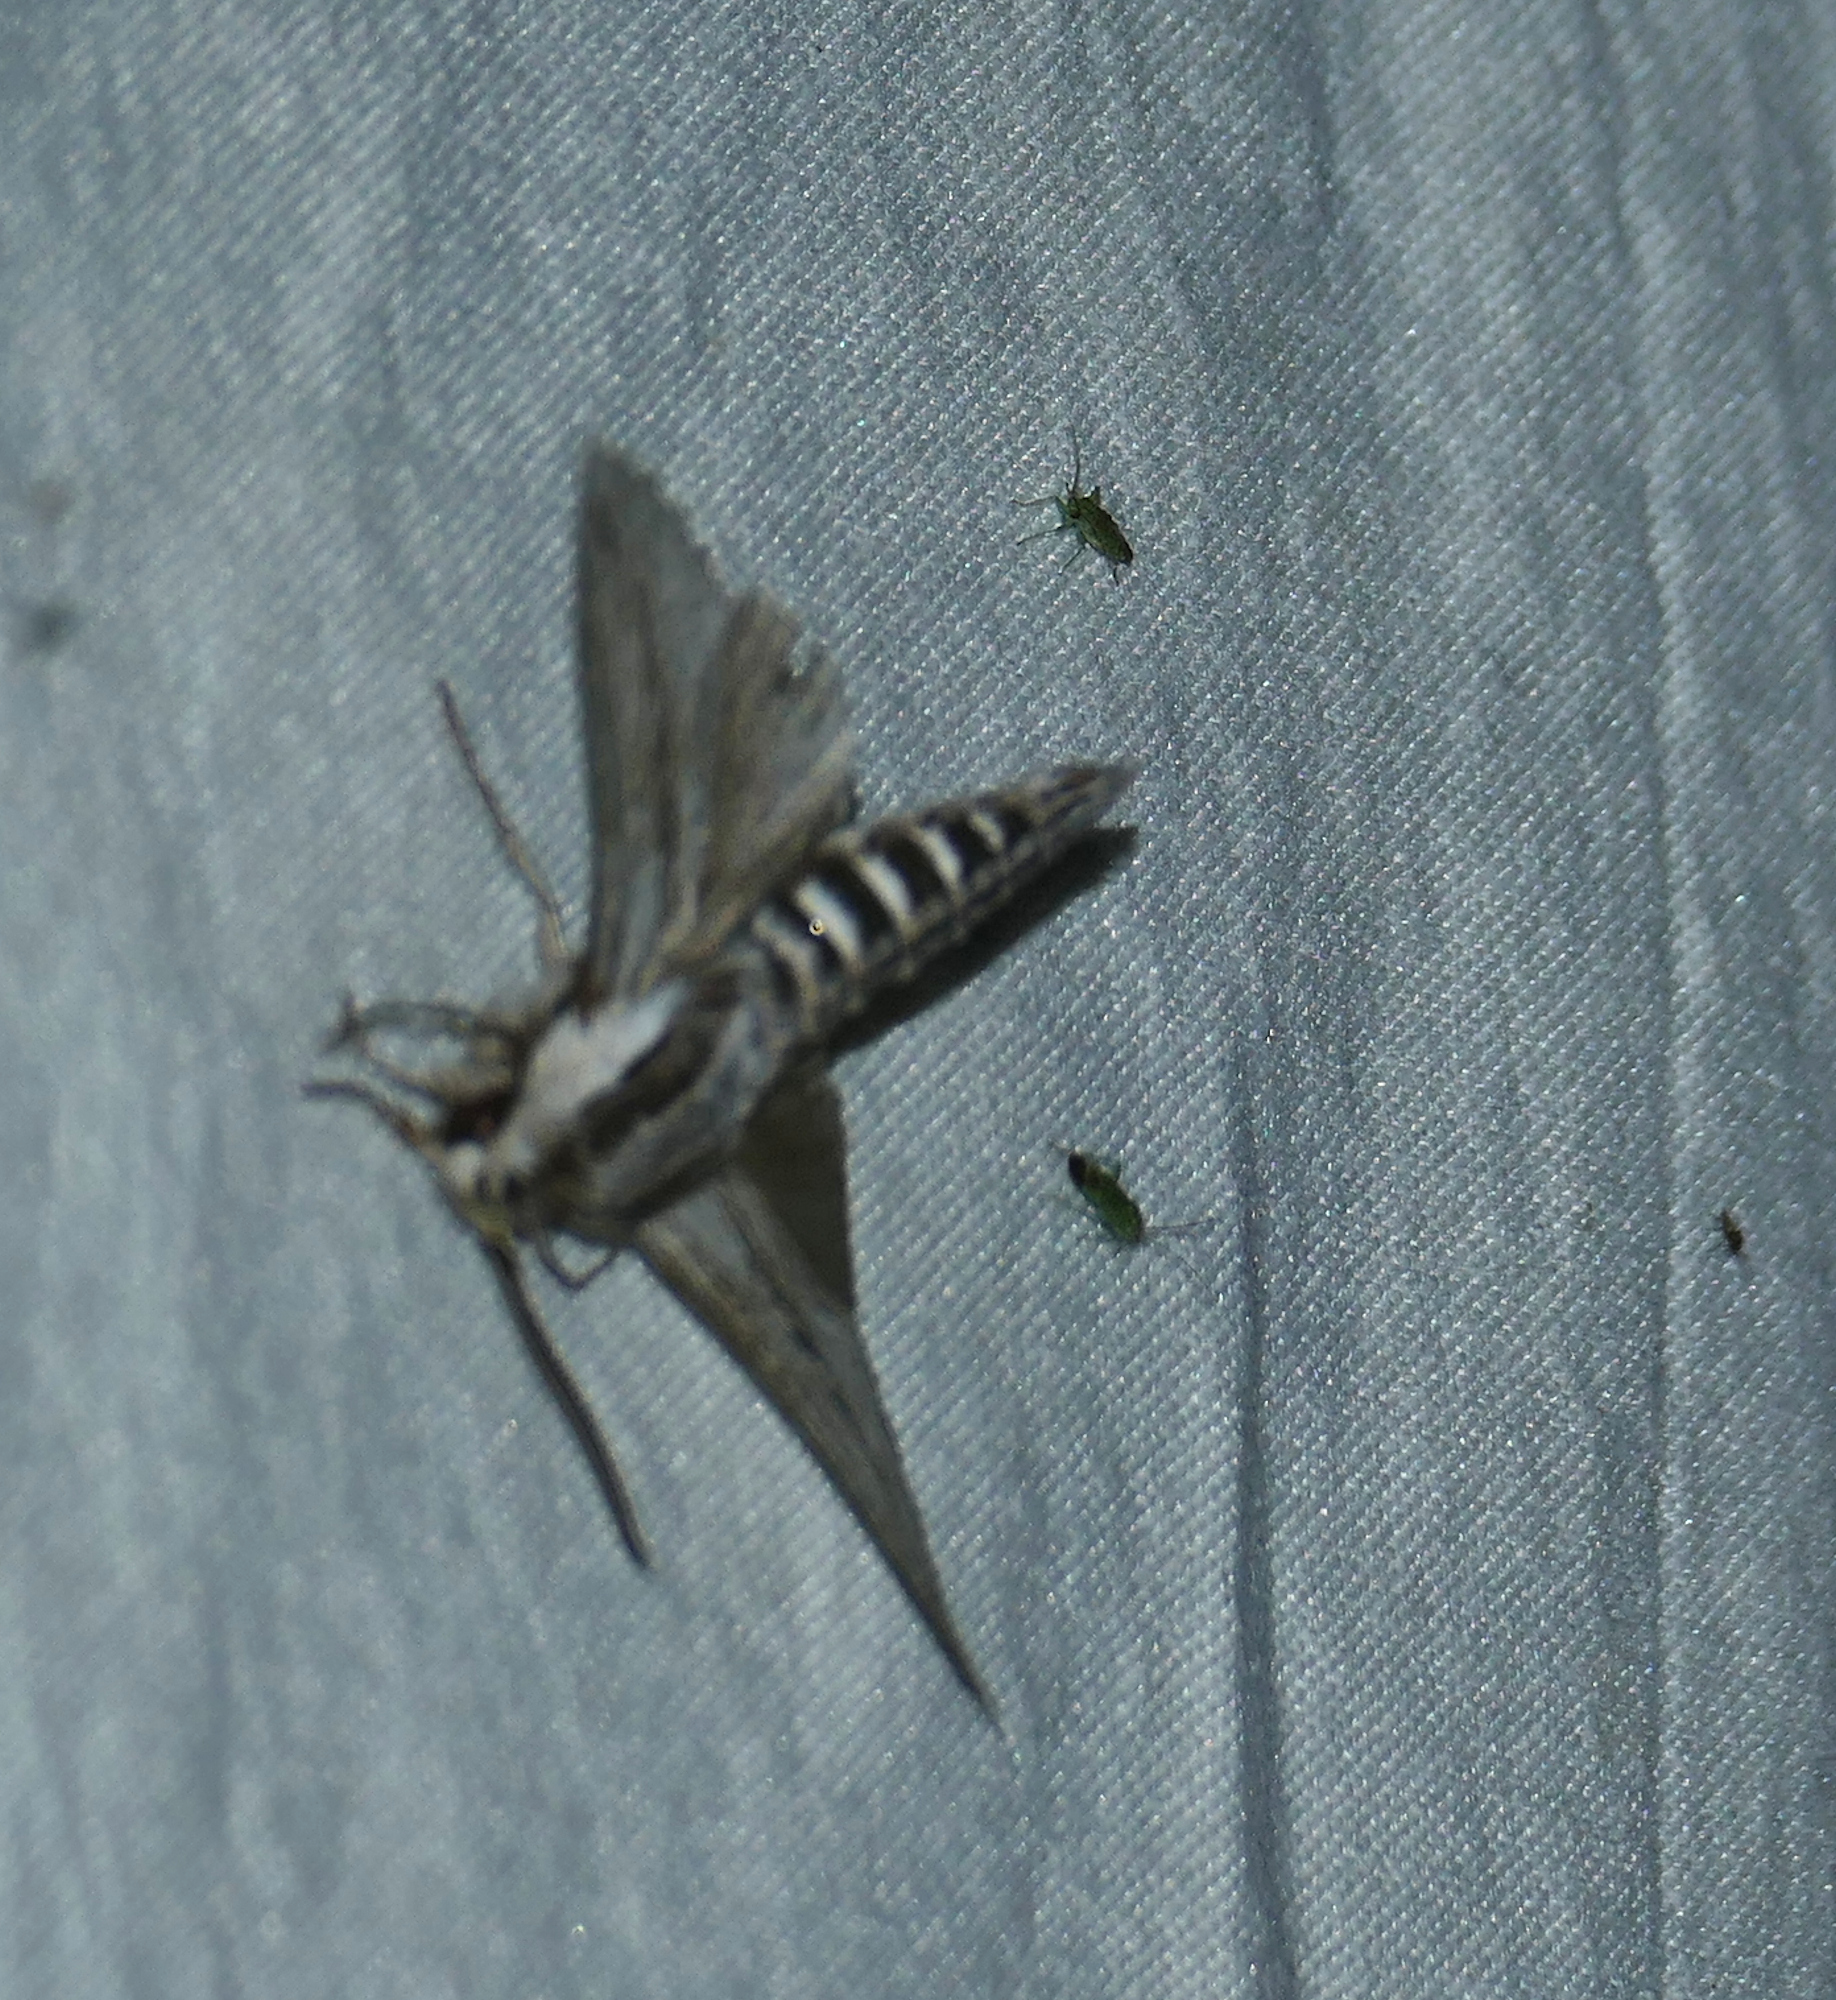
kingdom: Animalia
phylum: Arthropoda
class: Insecta
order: Lepidoptera
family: Sphingidae
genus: Sphinx
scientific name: Sphinx dollii
